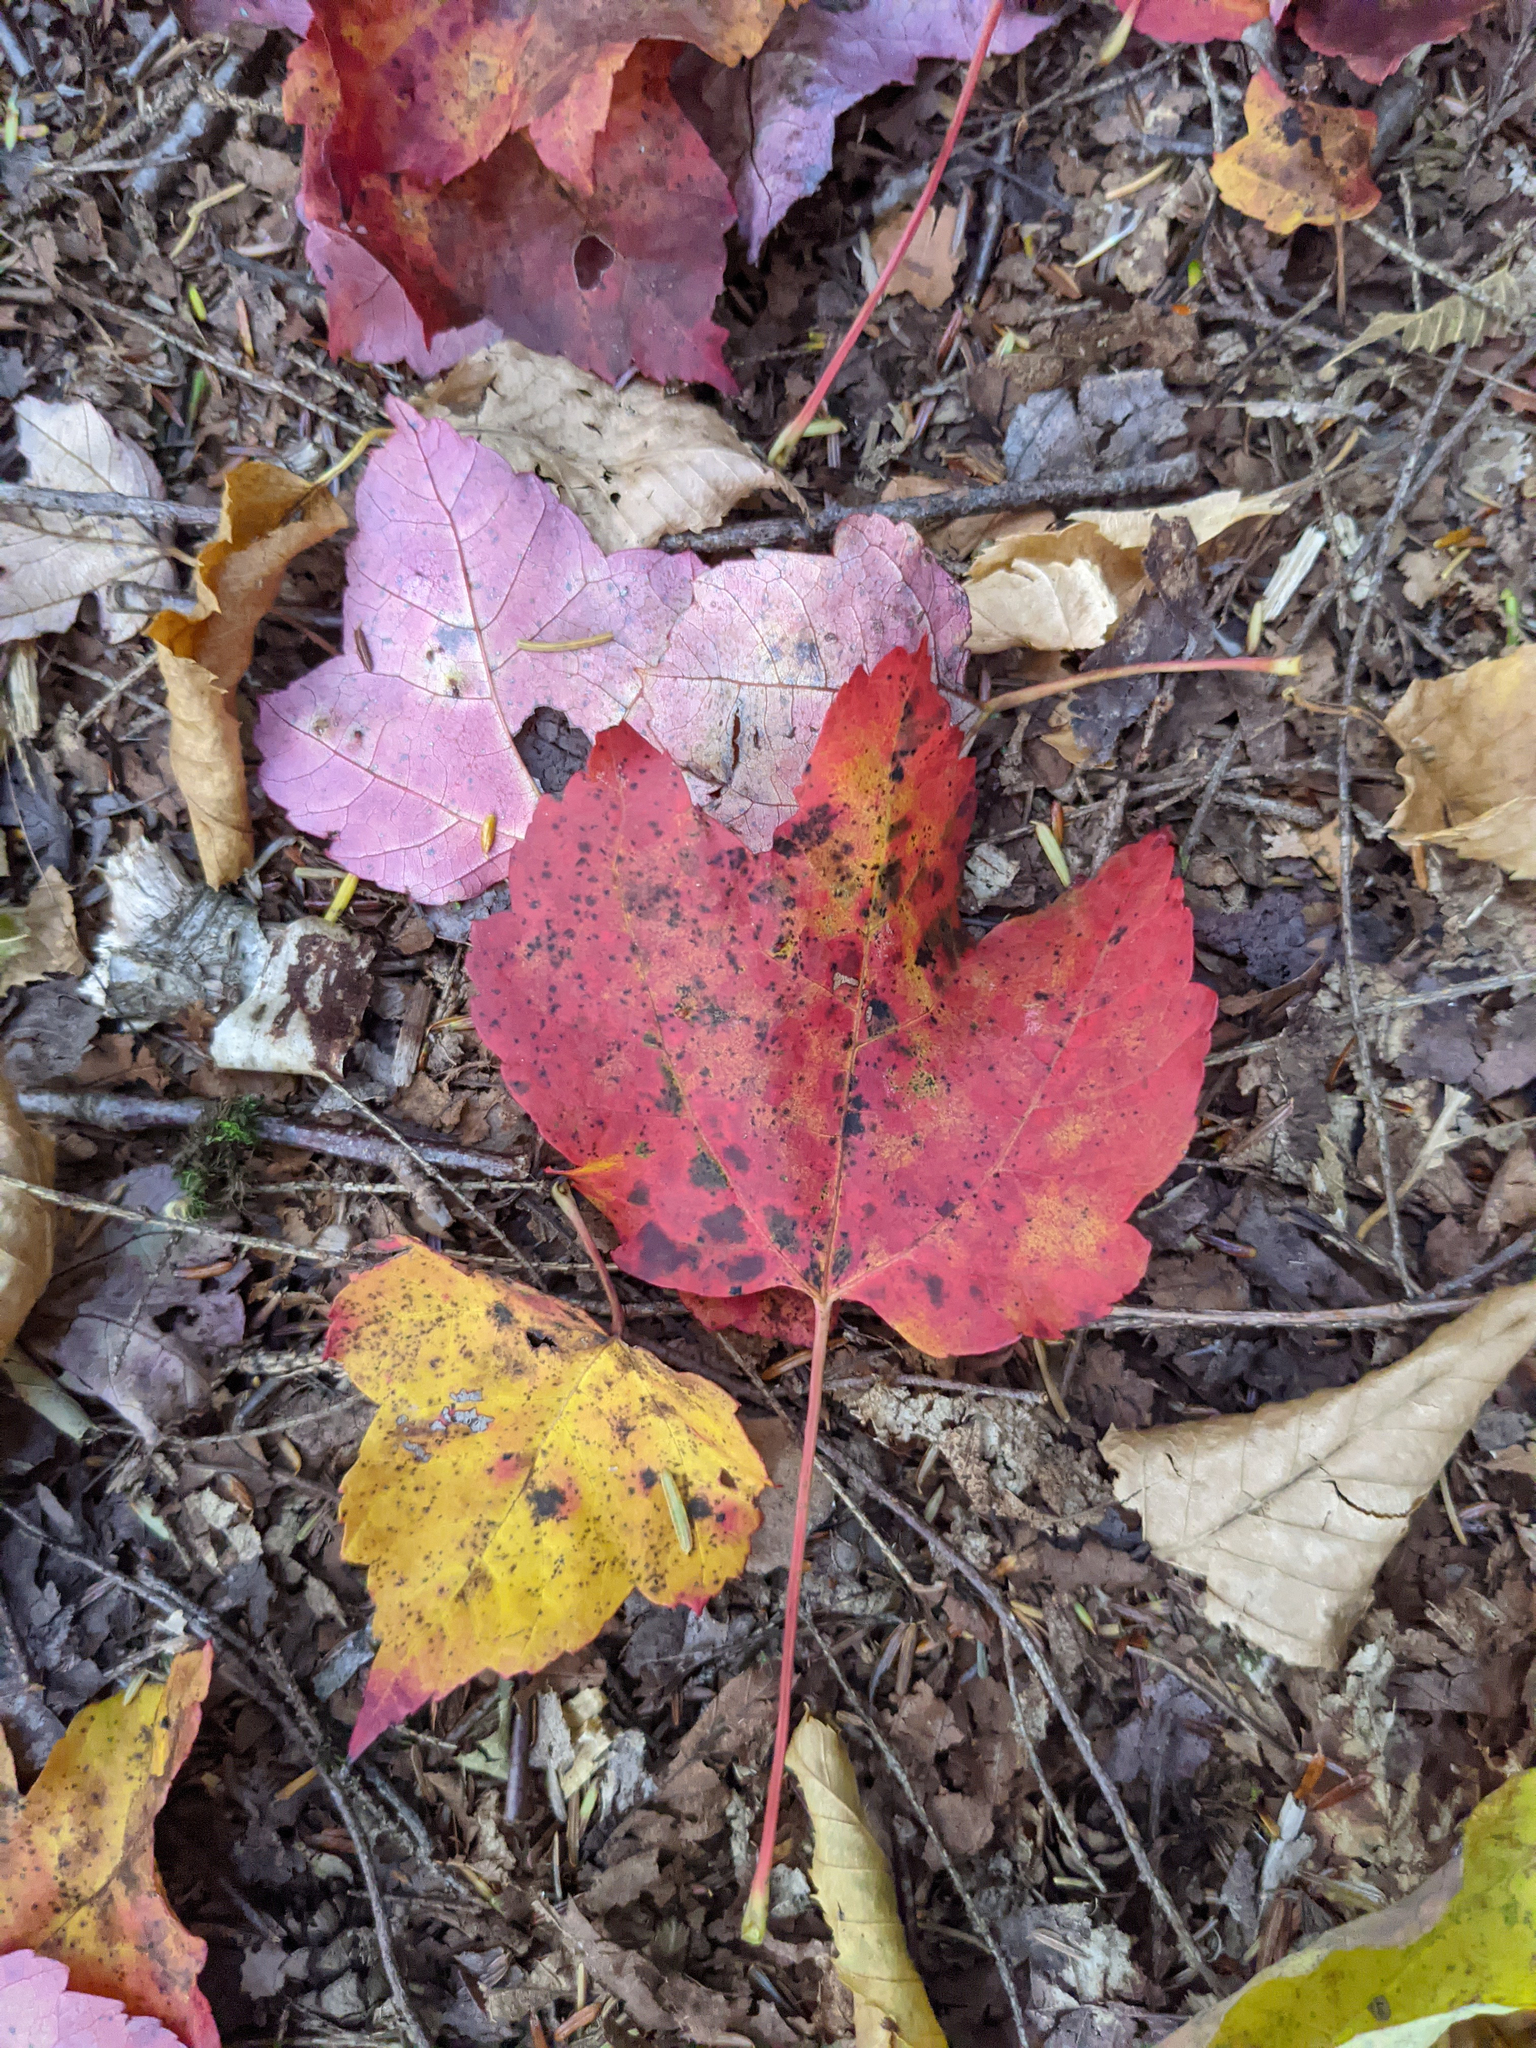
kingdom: Plantae
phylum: Tracheophyta
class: Magnoliopsida
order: Sapindales
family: Sapindaceae
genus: Acer
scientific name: Acer rubrum
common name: Red maple
